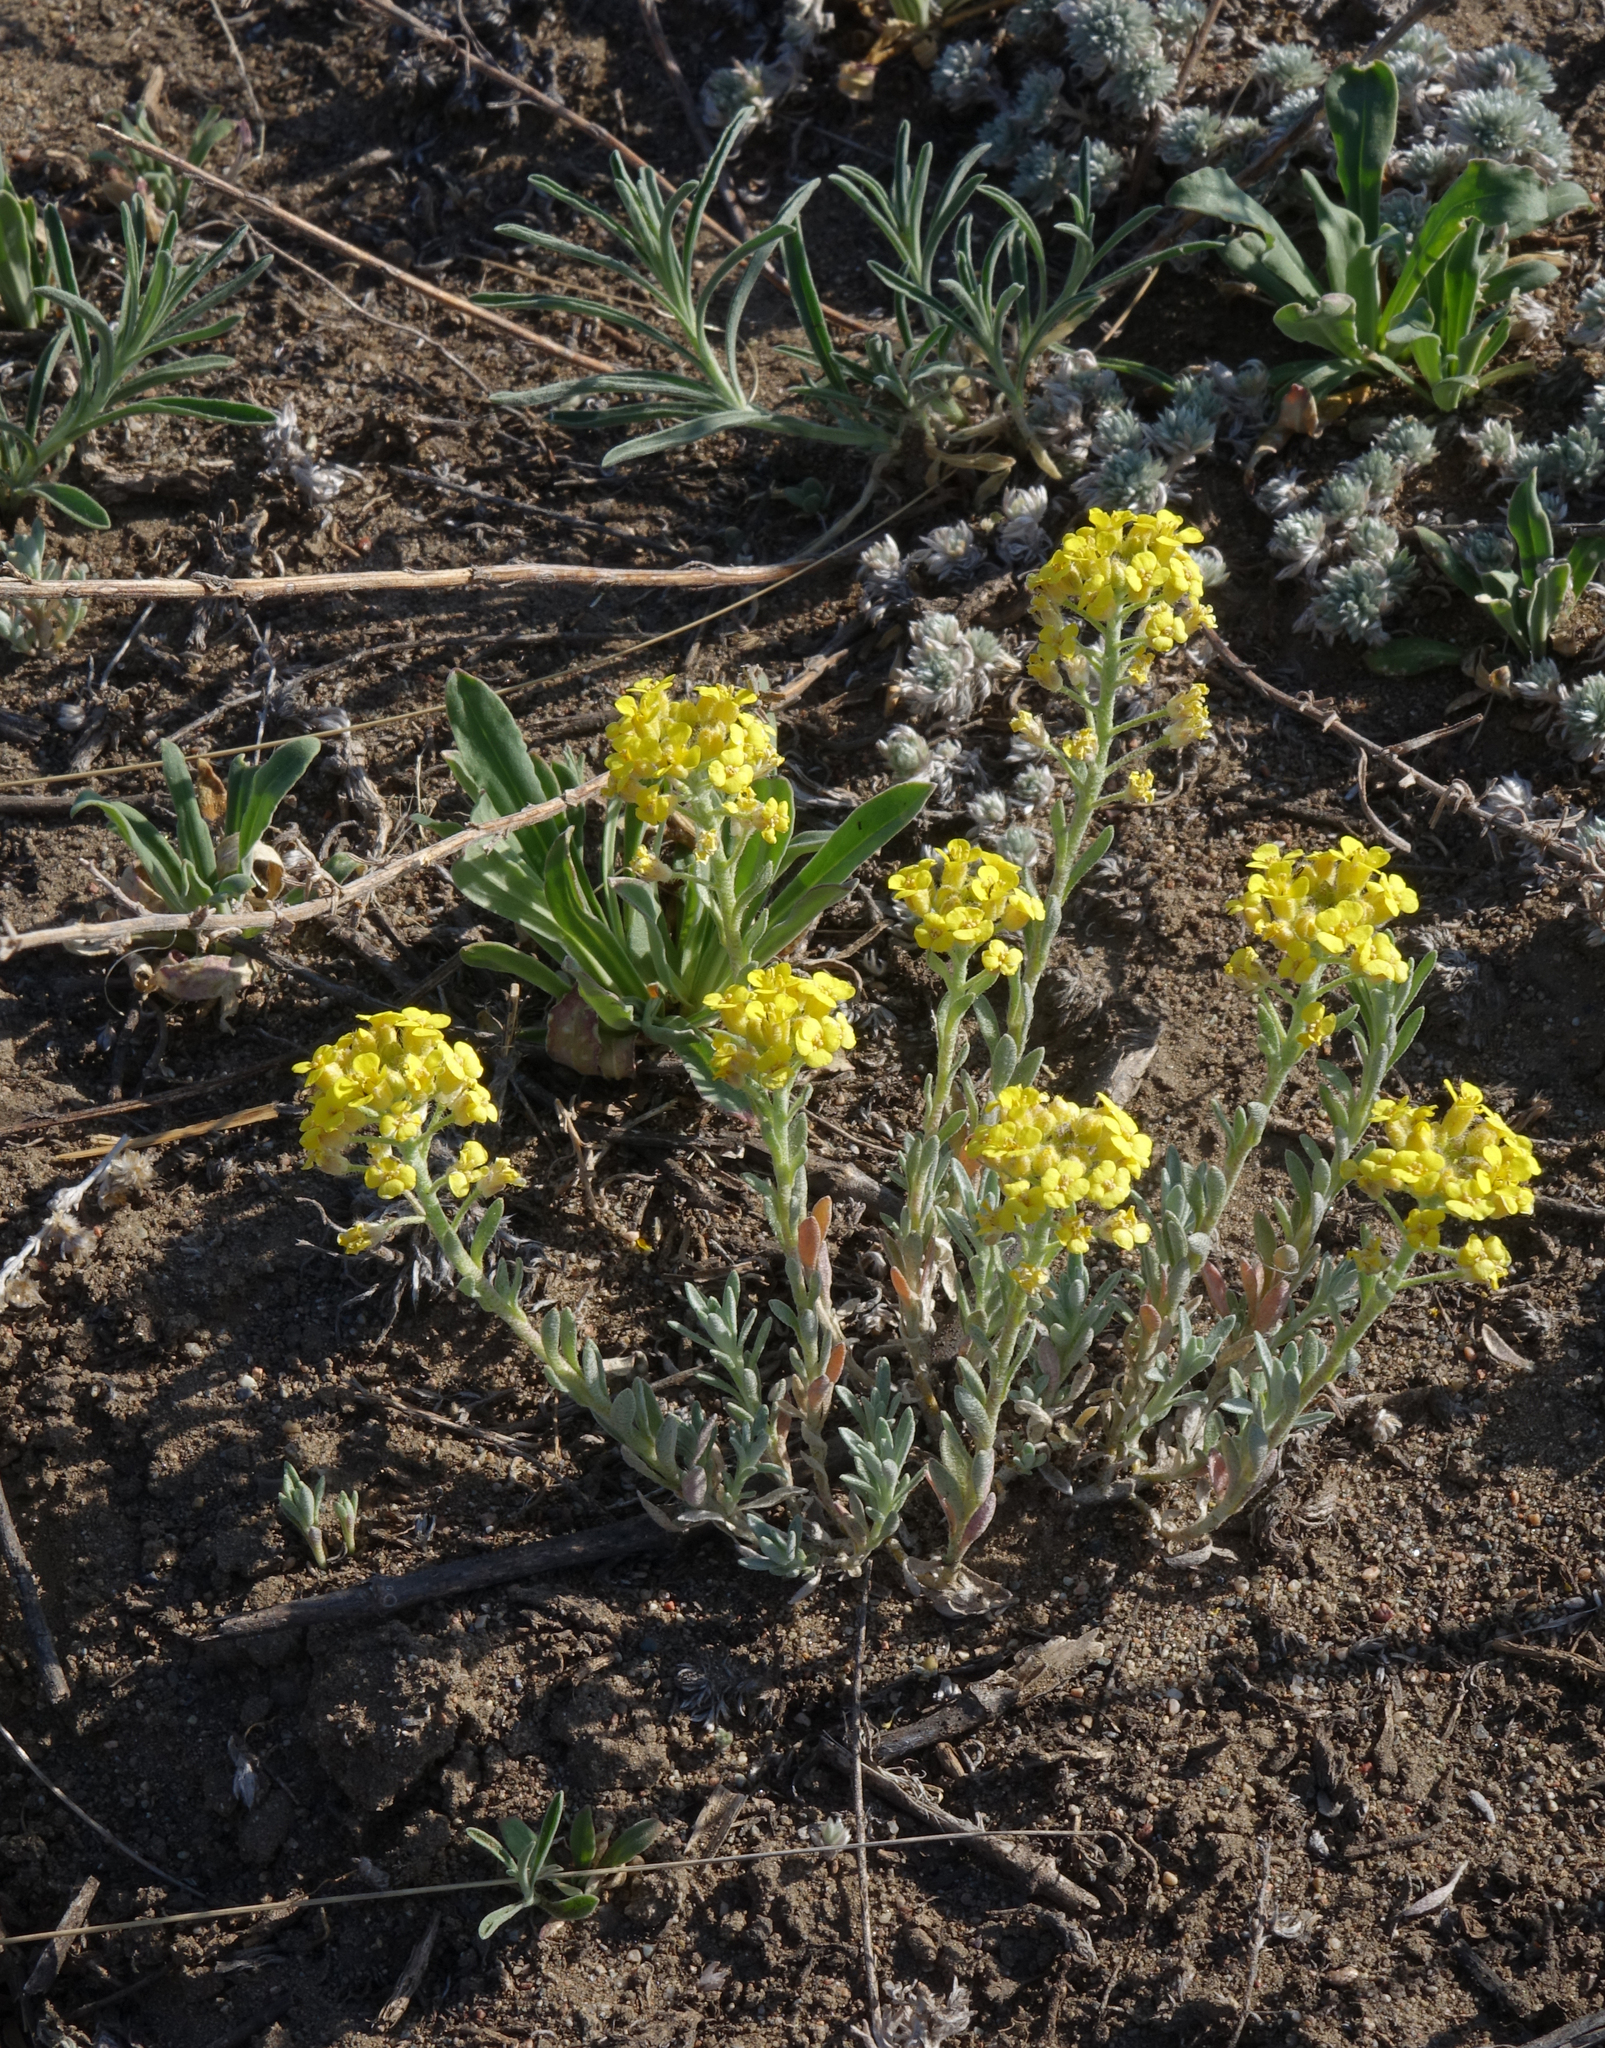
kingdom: Plantae
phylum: Tracheophyta
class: Magnoliopsida
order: Brassicales
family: Brassicaceae
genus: Alyssum
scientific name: Alyssum lenense
